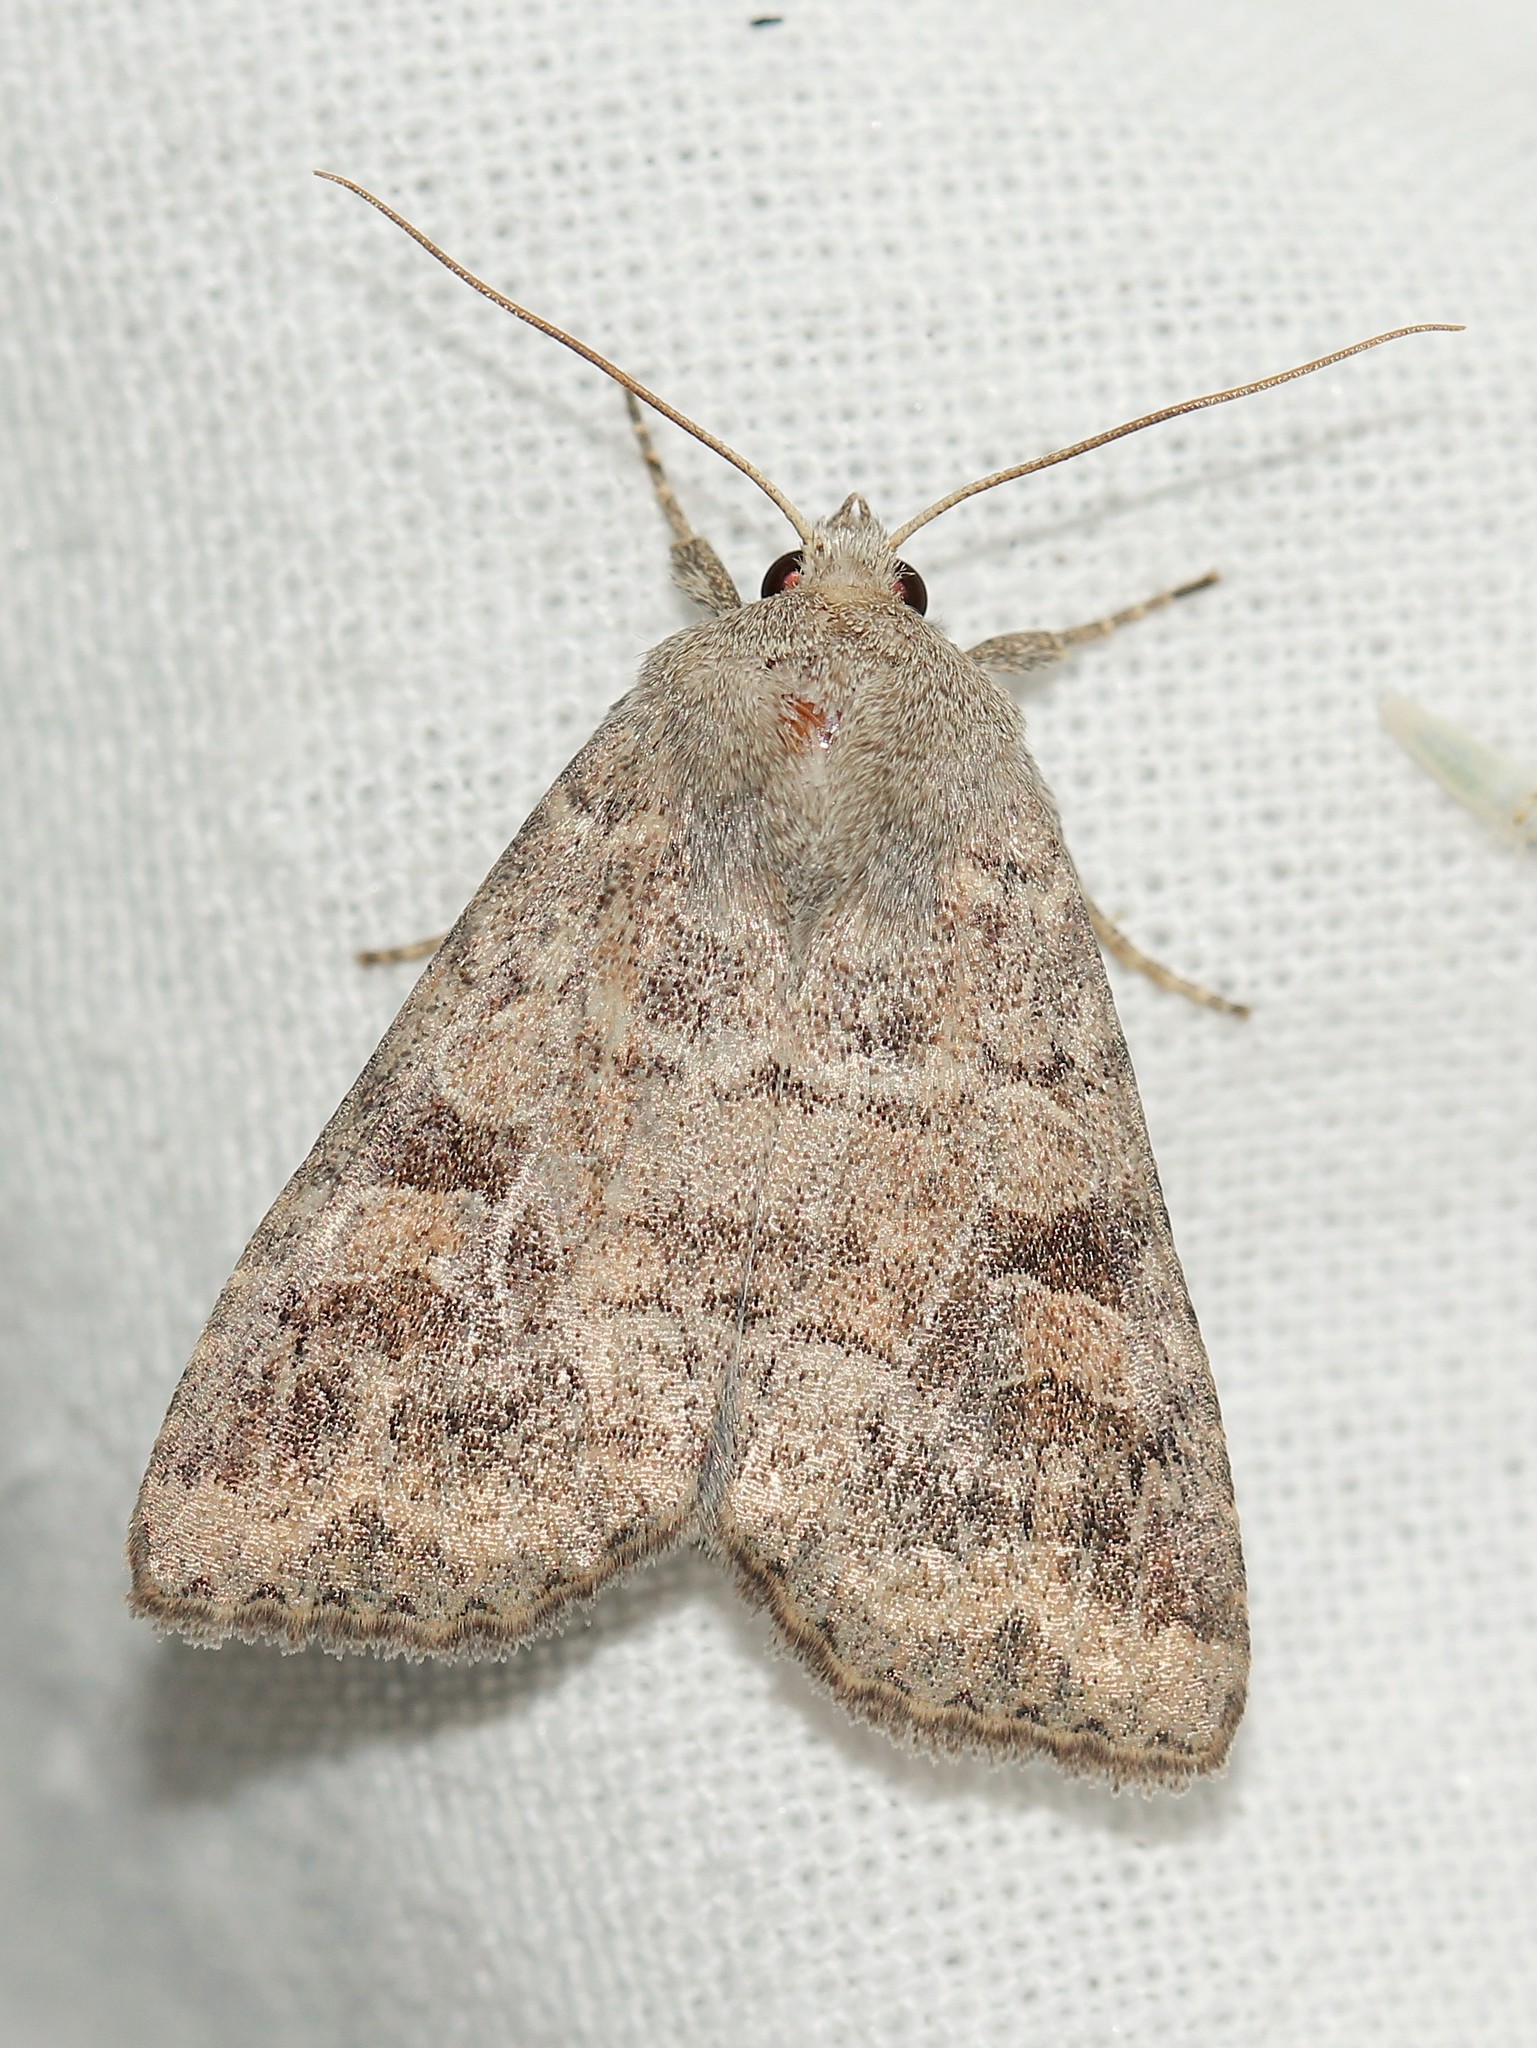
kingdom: Animalia
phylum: Arthropoda
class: Insecta
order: Lepidoptera
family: Noctuidae
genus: Parastichtis
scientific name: Parastichtis suspecta
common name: Suspected
